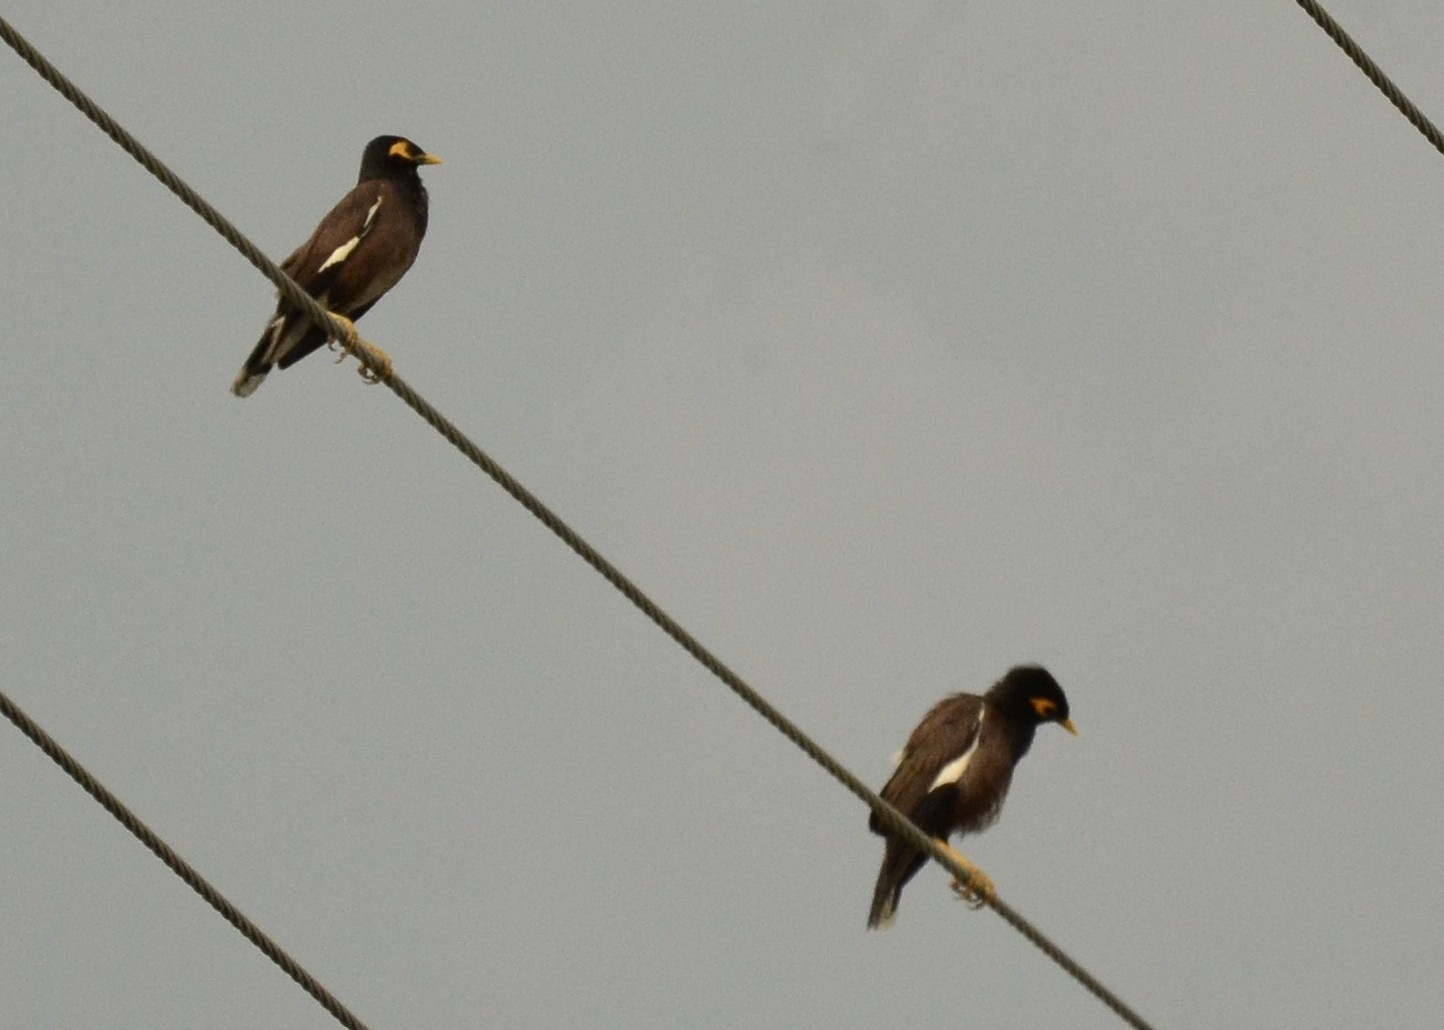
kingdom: Animalia
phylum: Chordata
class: Aves
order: Passeriformes
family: Sturnidae
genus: Acridotheres
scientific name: Acridotheres tristis
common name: Common myna
